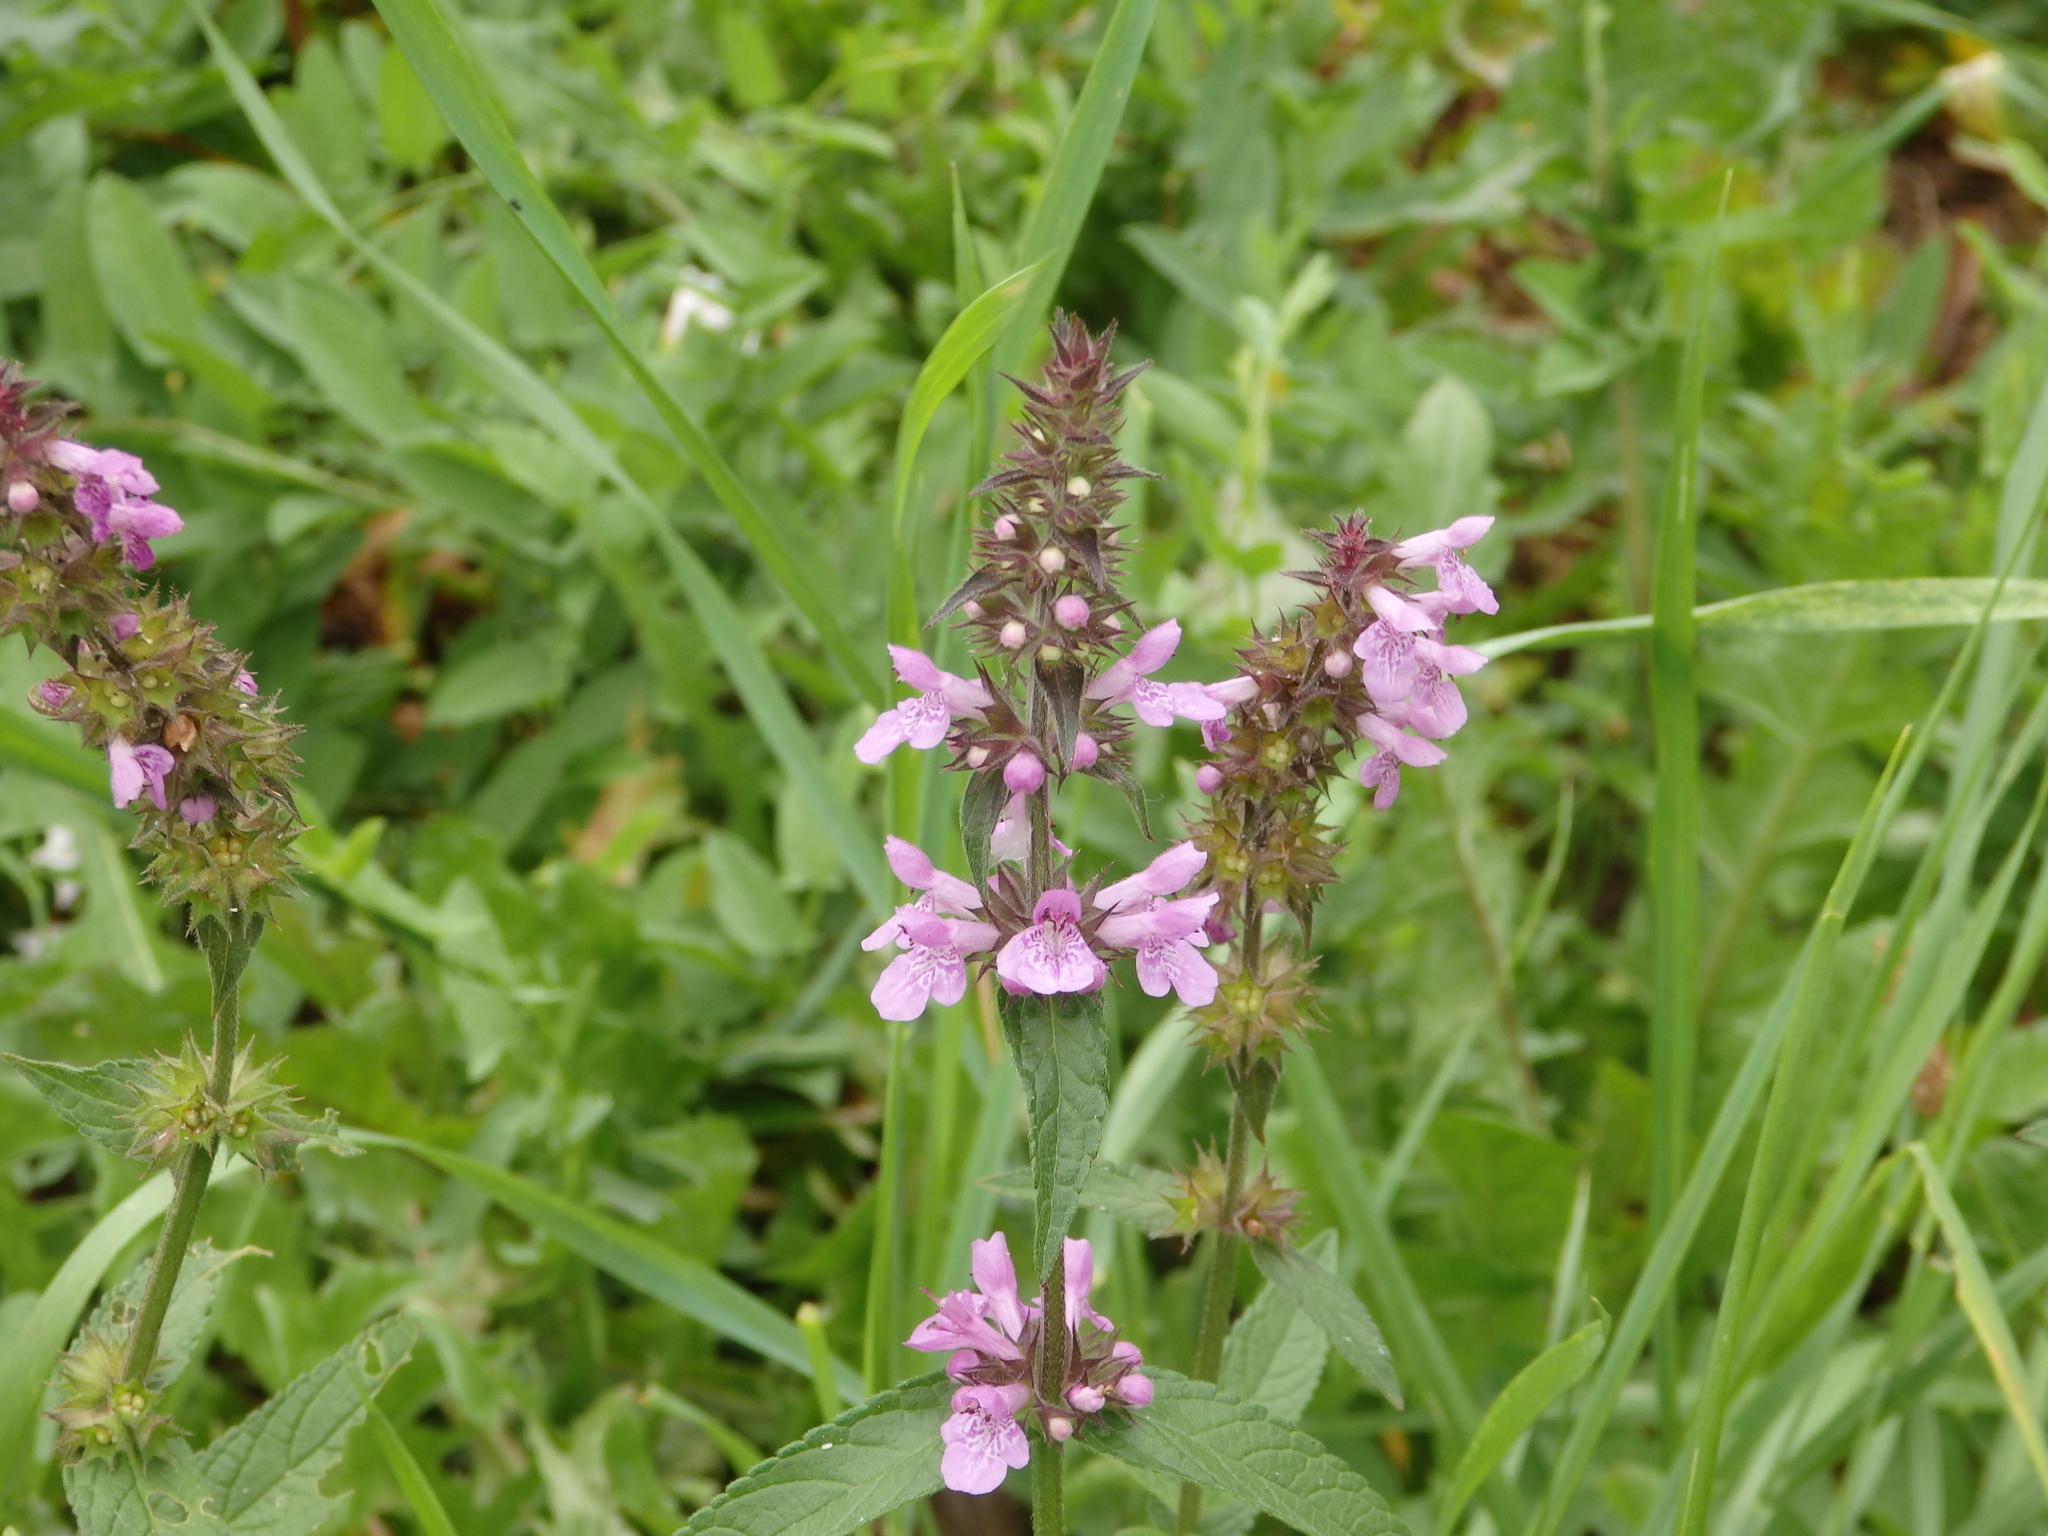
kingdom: Plantae
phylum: Tracheophyta
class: Magnoliopsida
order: Lamiales
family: Lamiaceae
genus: Stachys
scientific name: Stachys palustris
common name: Marsh woundwort
